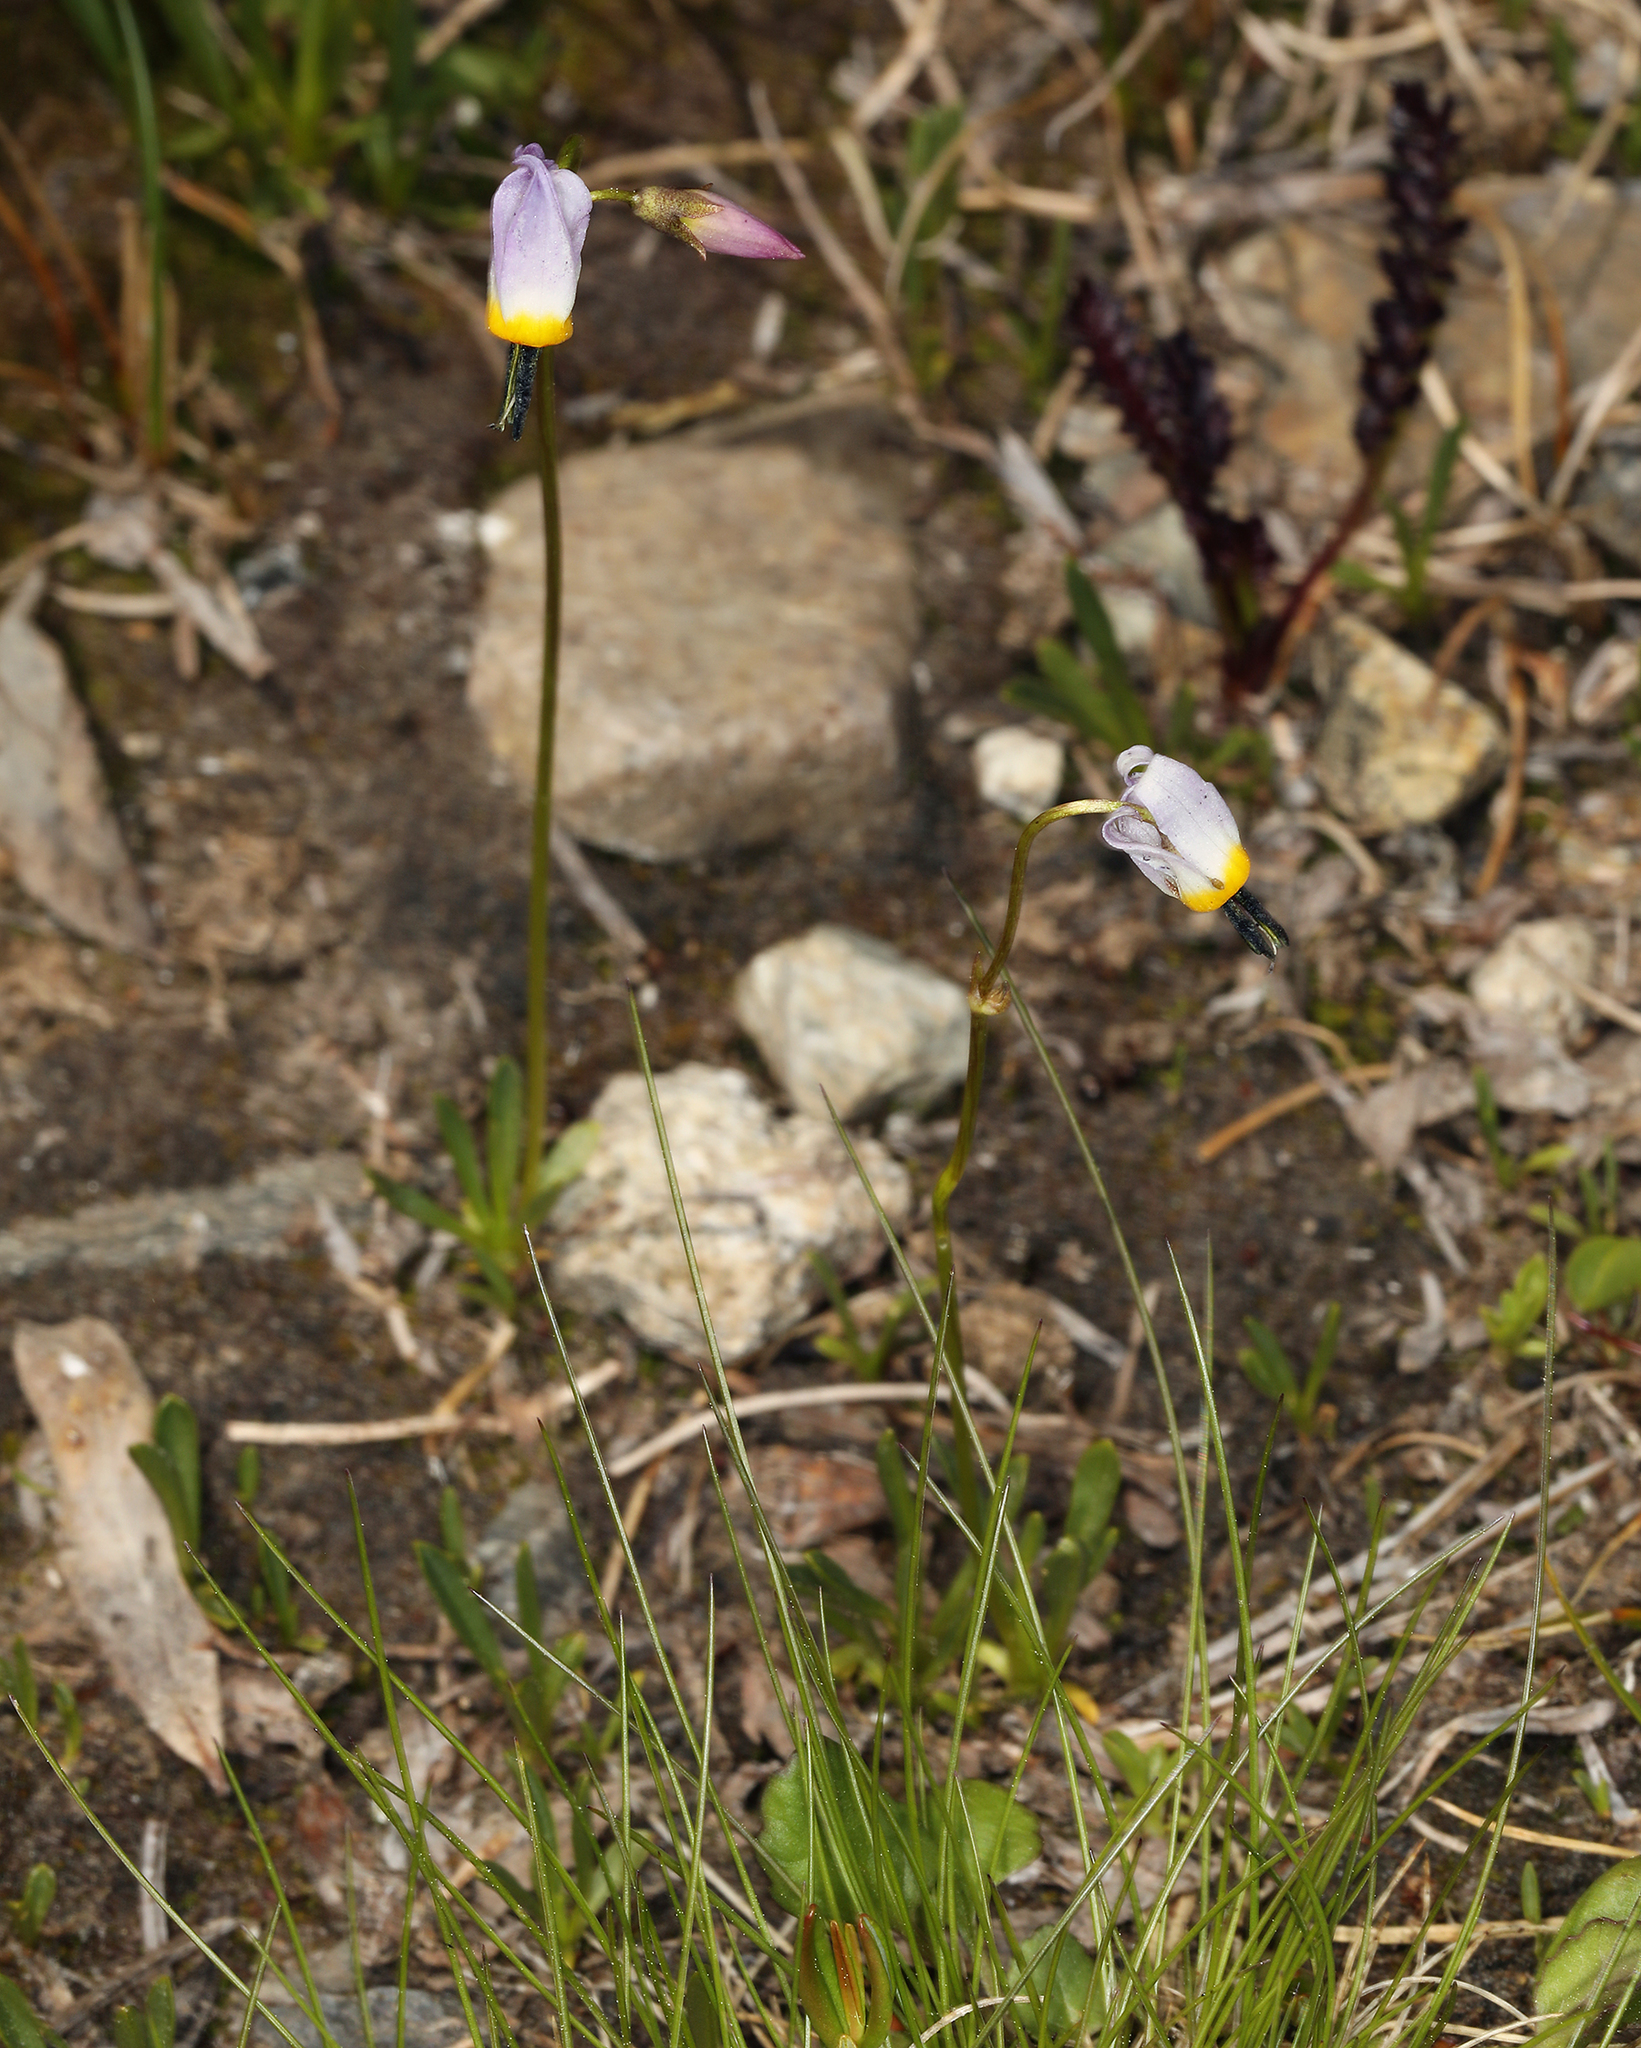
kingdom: Plantae
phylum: Tracheophyta
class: Magnoliopsida
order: Ericales
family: Primulaceae
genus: Dodecatheon
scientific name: Dodecatheon alpinum
